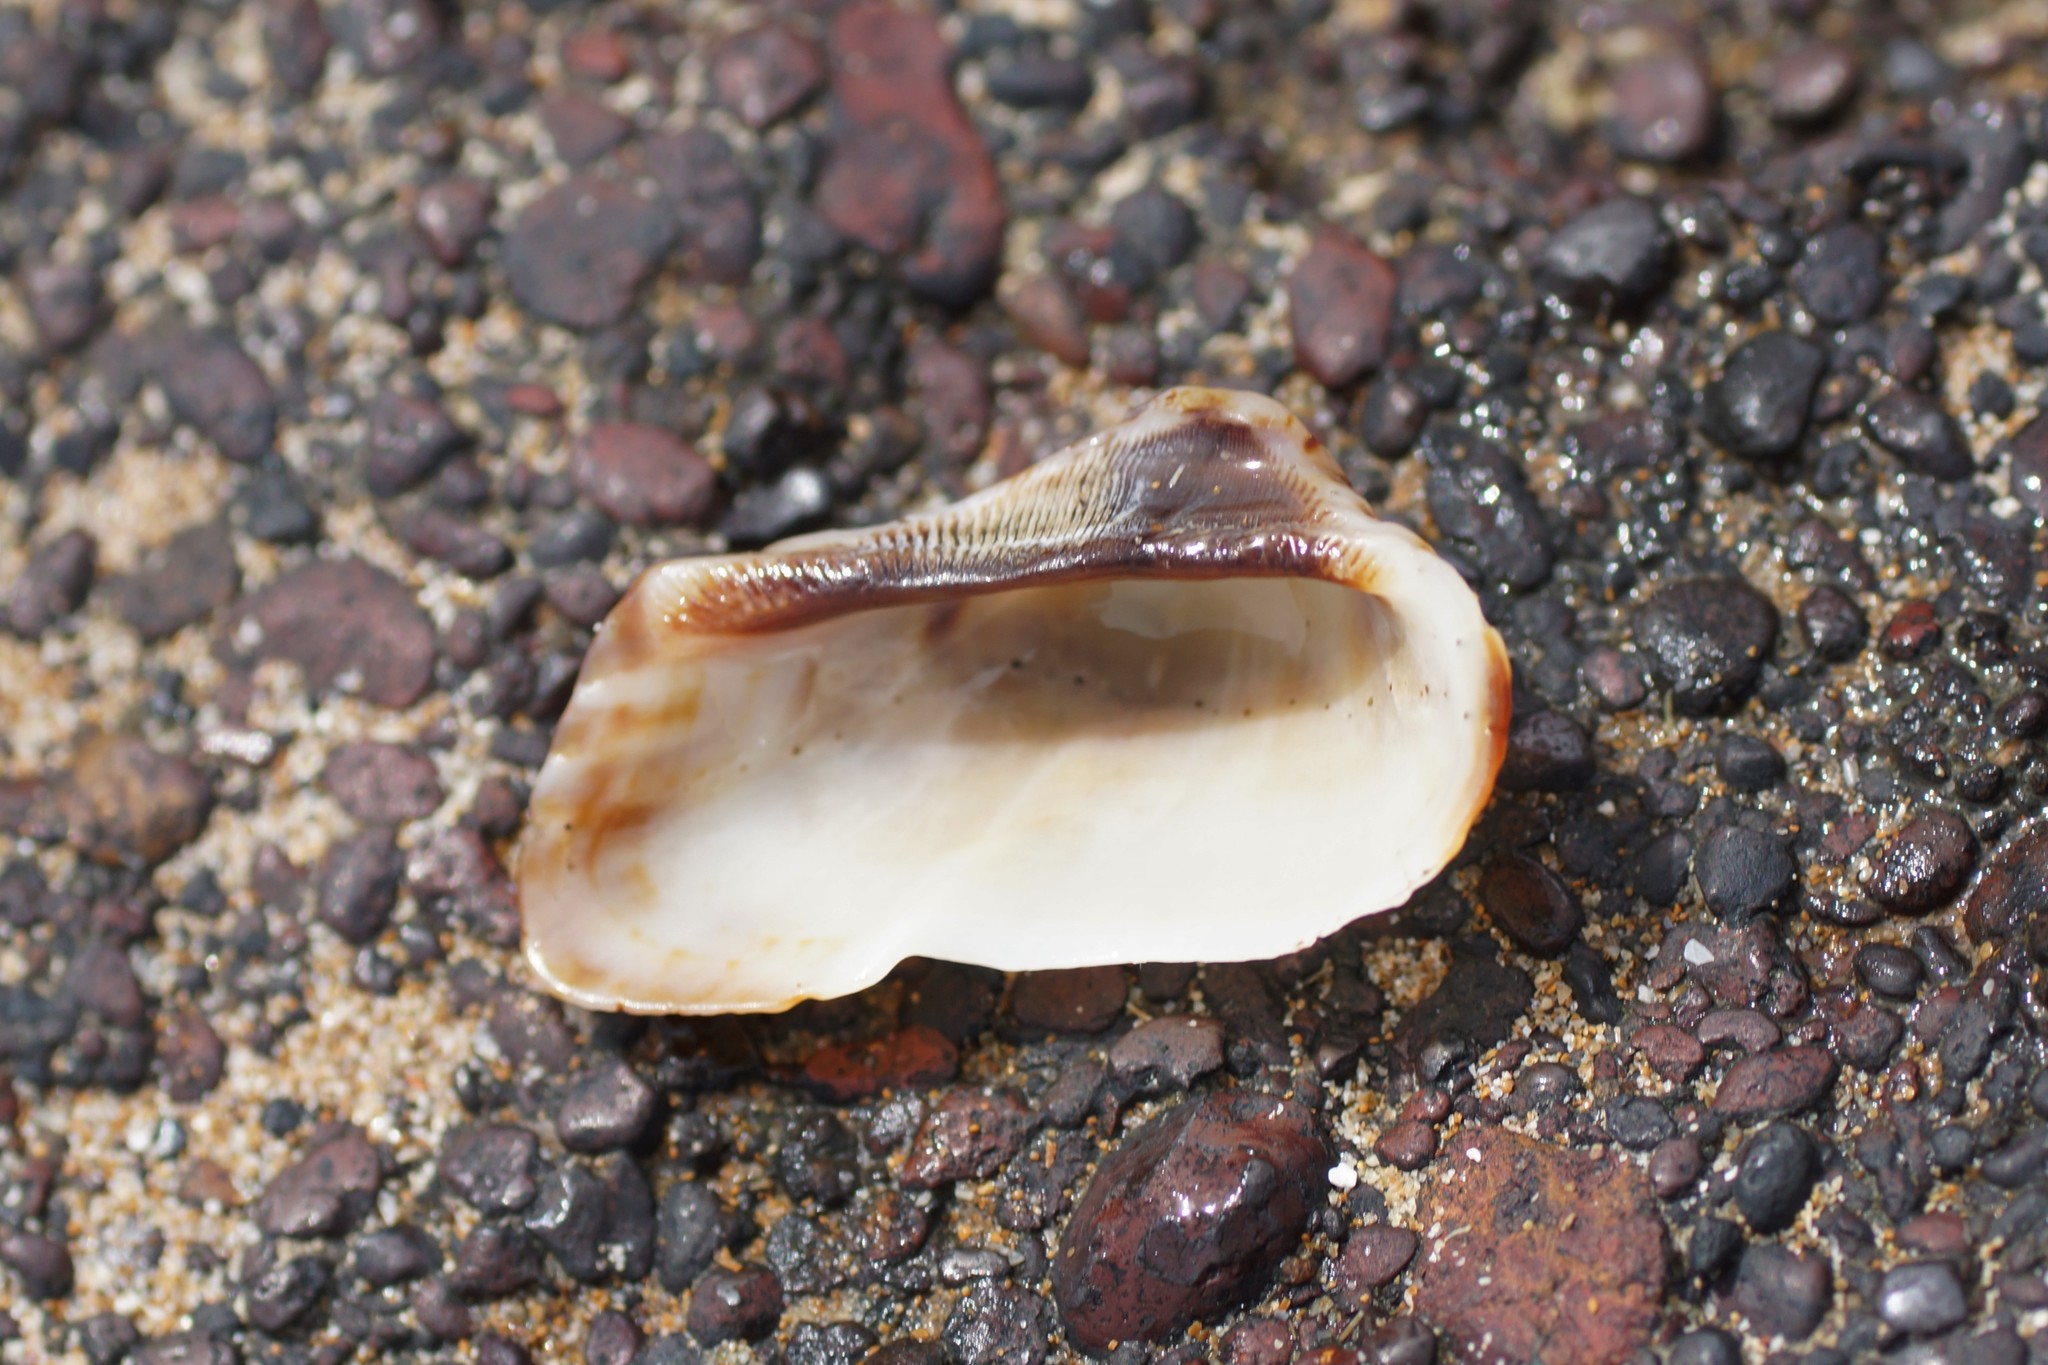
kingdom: Animalia
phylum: Mollusca
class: Bivalvia
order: Arcida
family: Arcidae
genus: Lamarcka
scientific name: Lamarcka avellana
